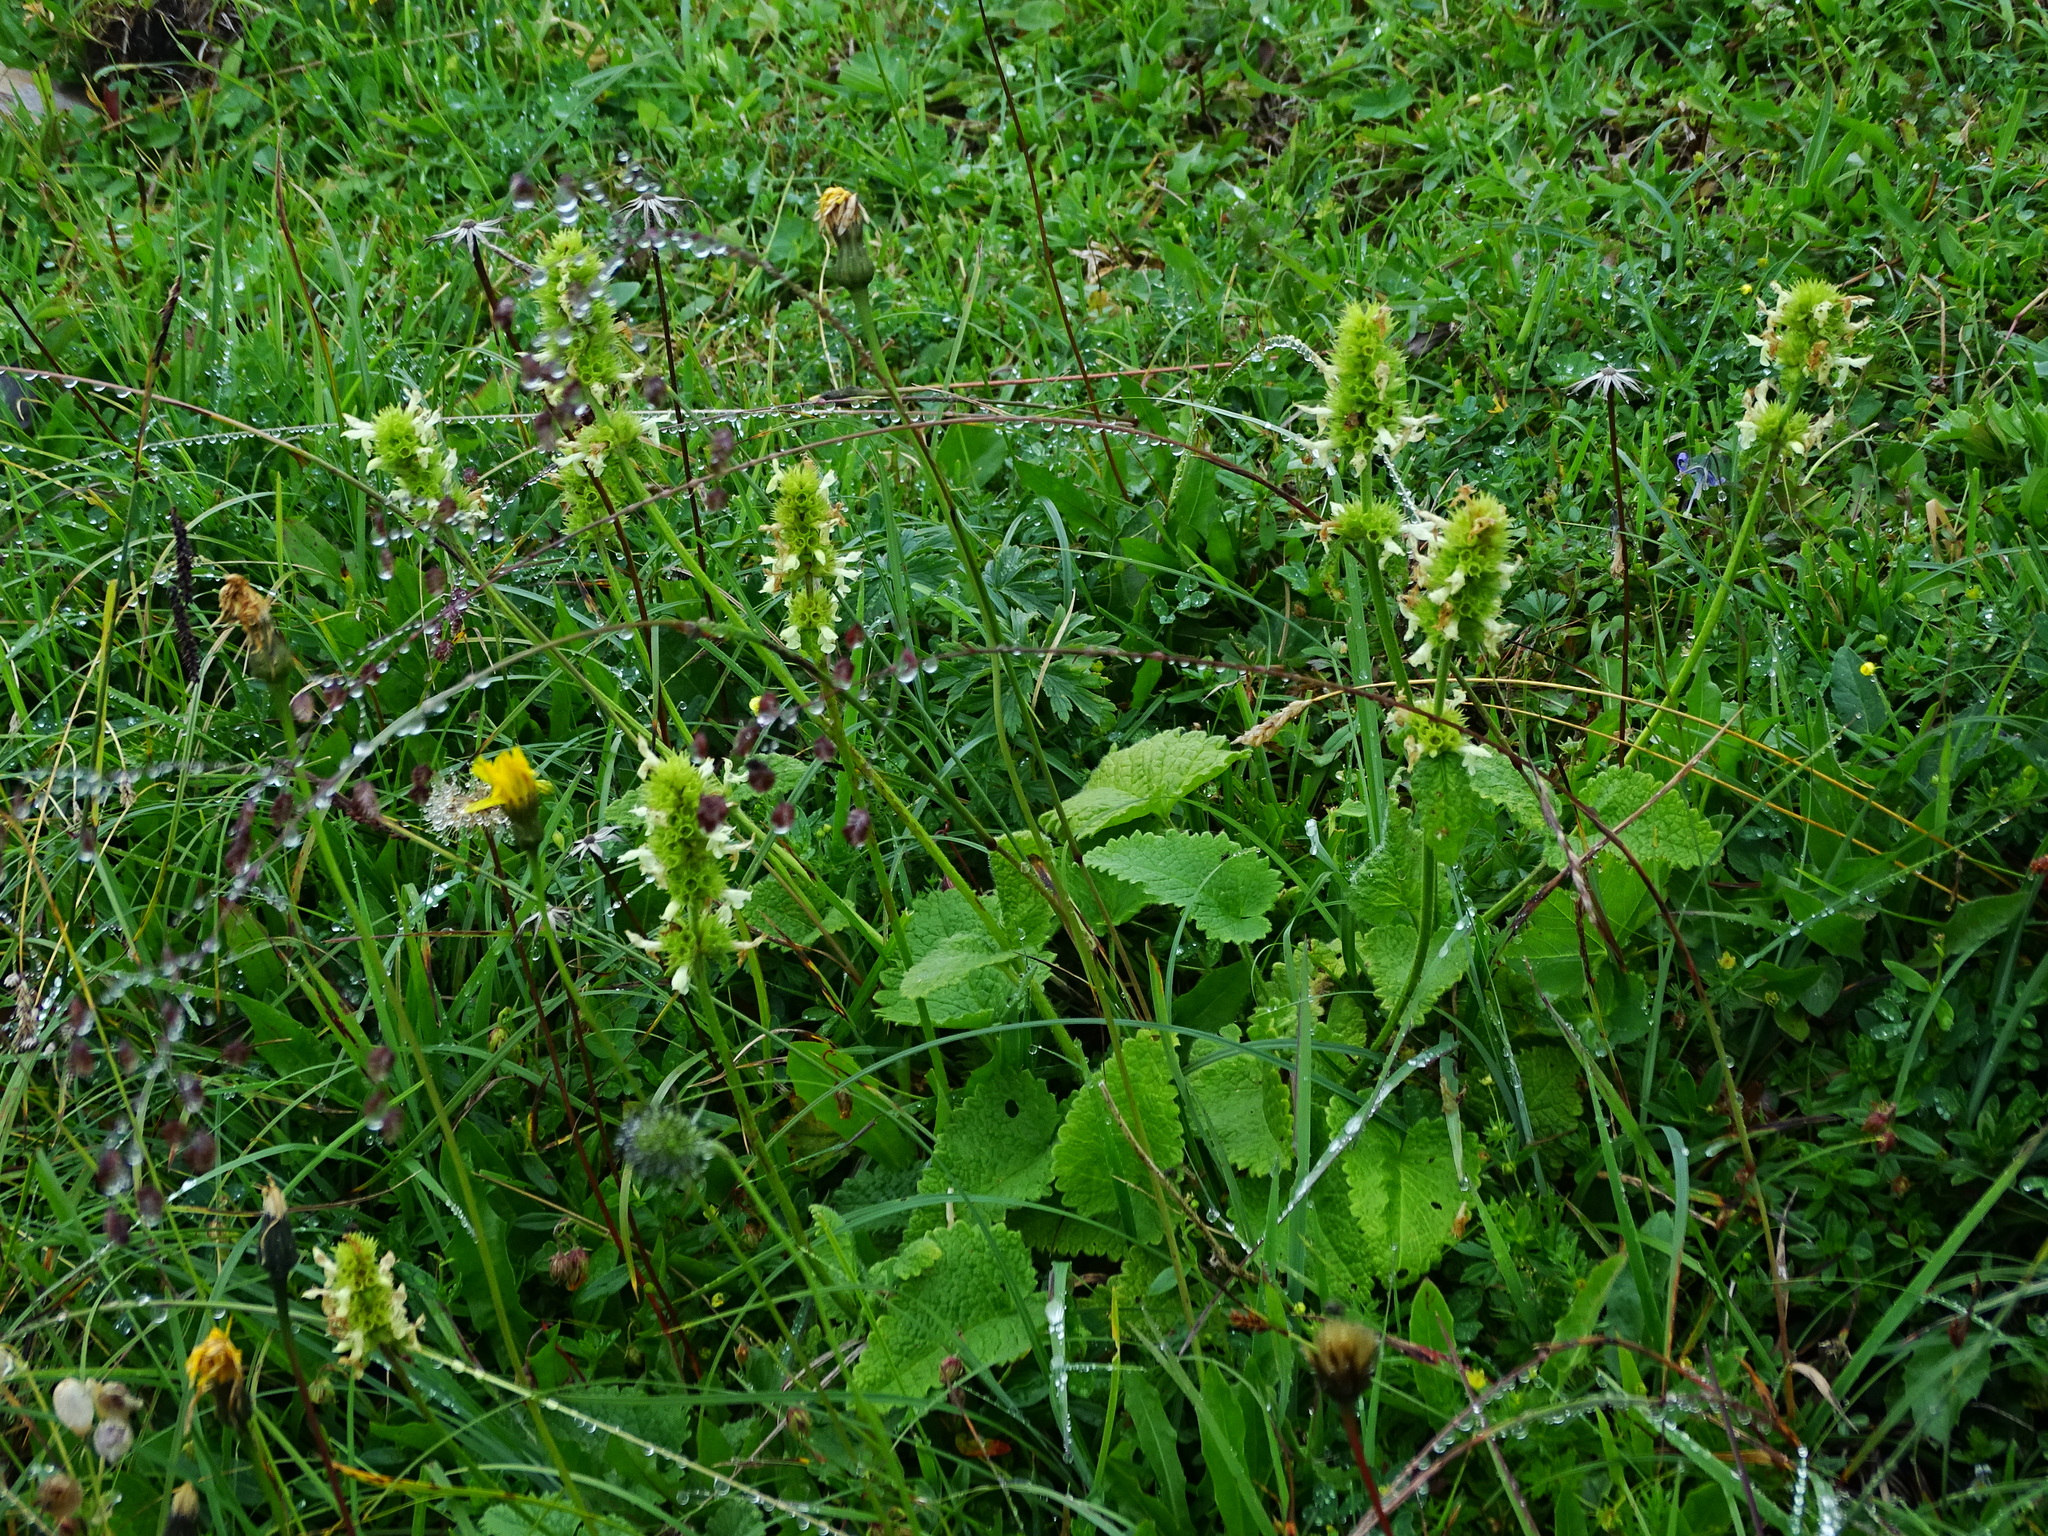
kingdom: Plantae
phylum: Tracheophyta
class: Magnoliopsida
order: Lamiales
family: Lamiaceae
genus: Betonica
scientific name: Betonica alopecuros
